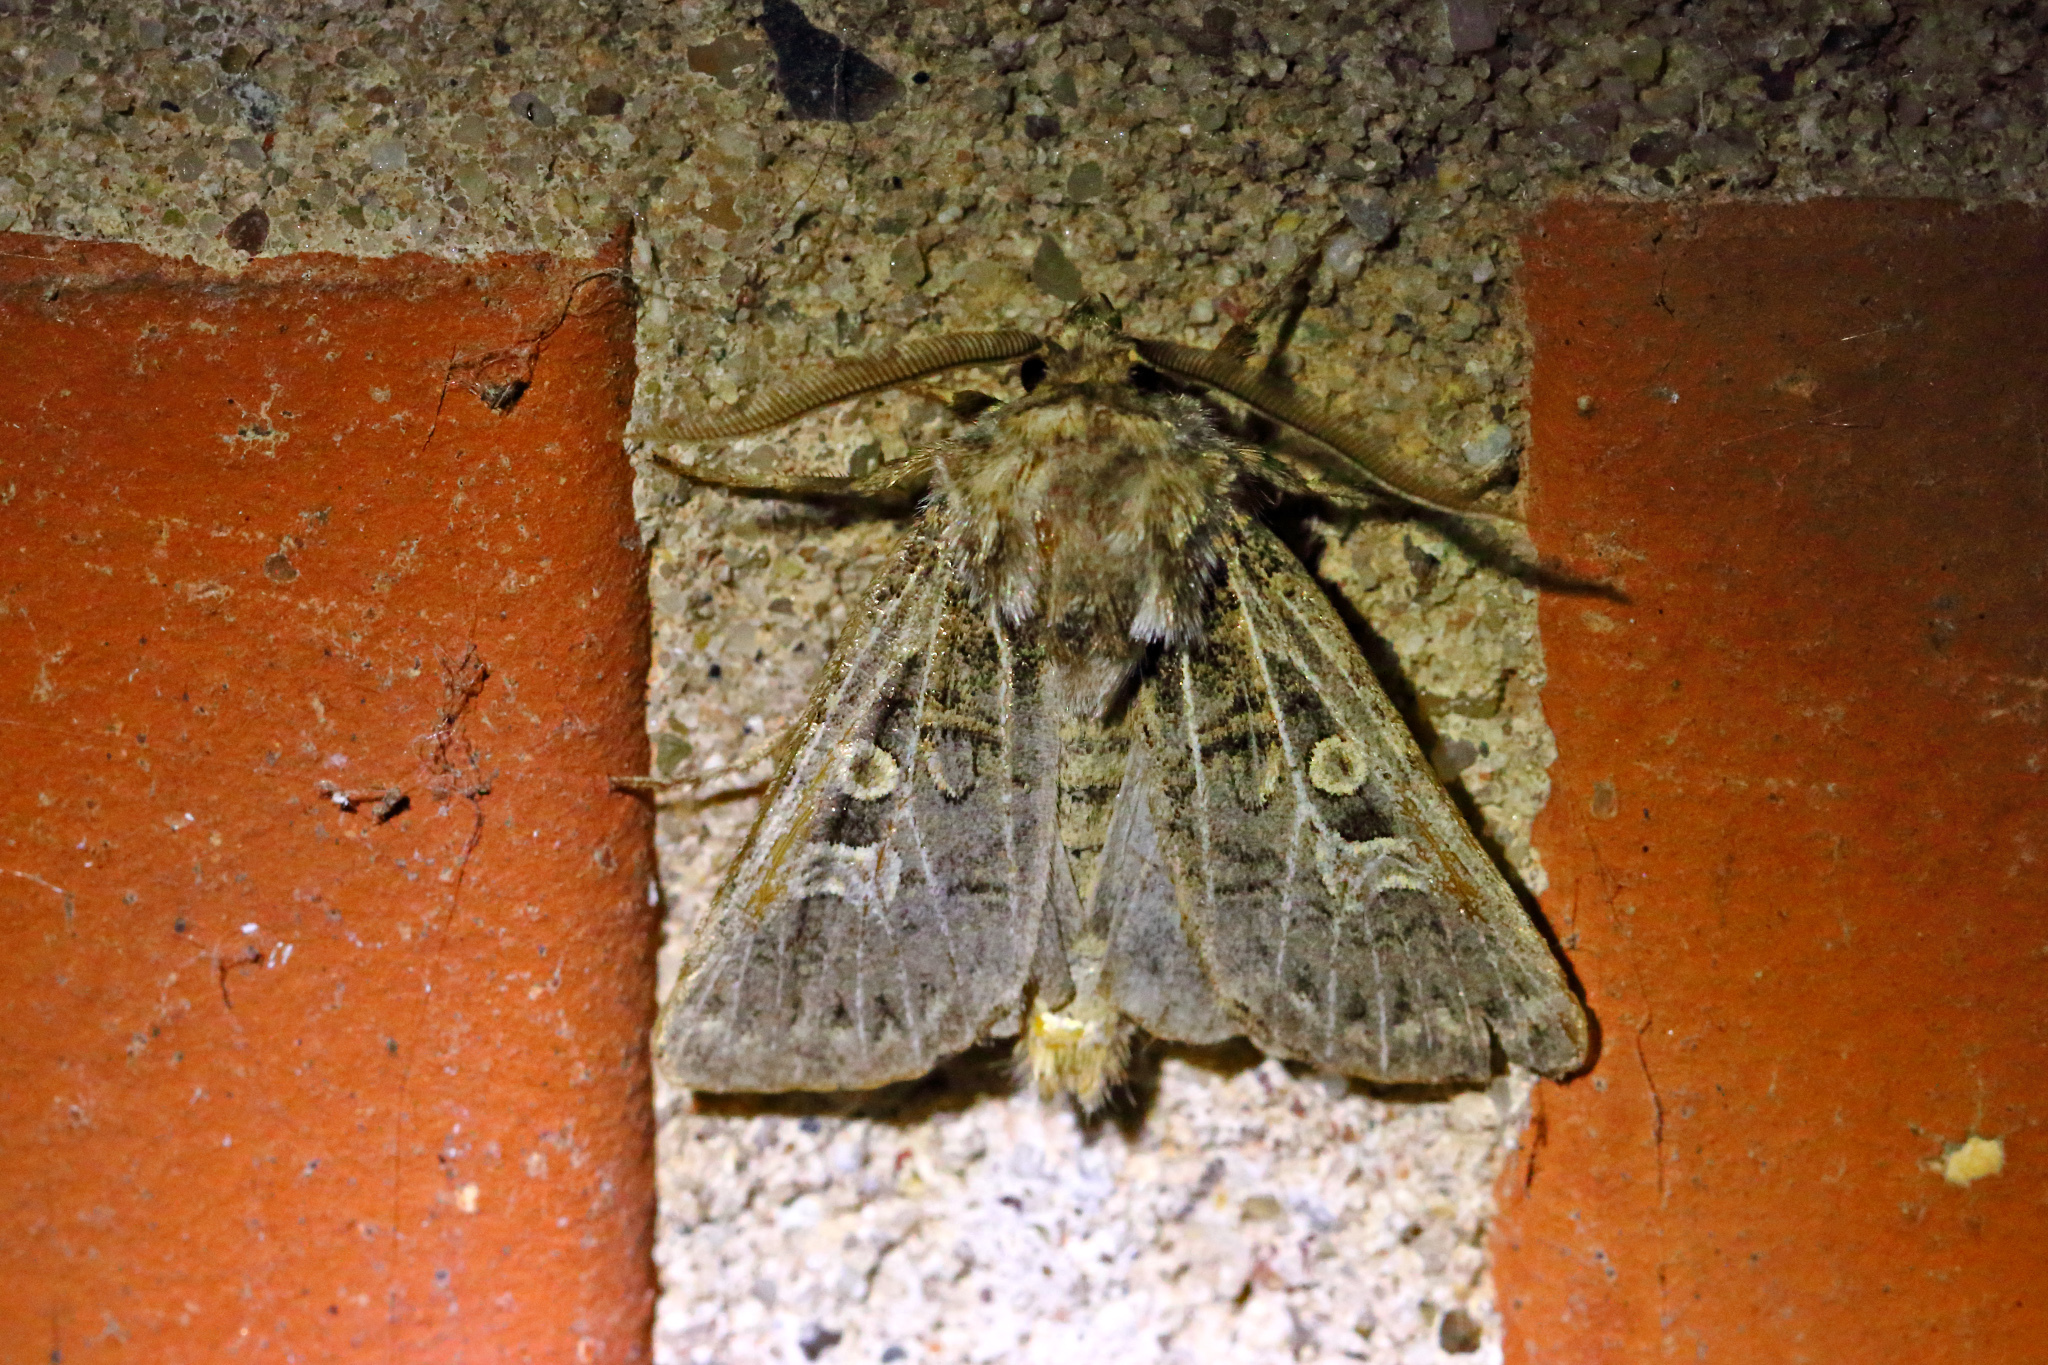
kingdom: Animalia
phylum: Arthropoda
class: Insecta
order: Lepidoptera
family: Noctuidae
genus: Tholera
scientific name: Tholera decimalis
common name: Feathered gothic
